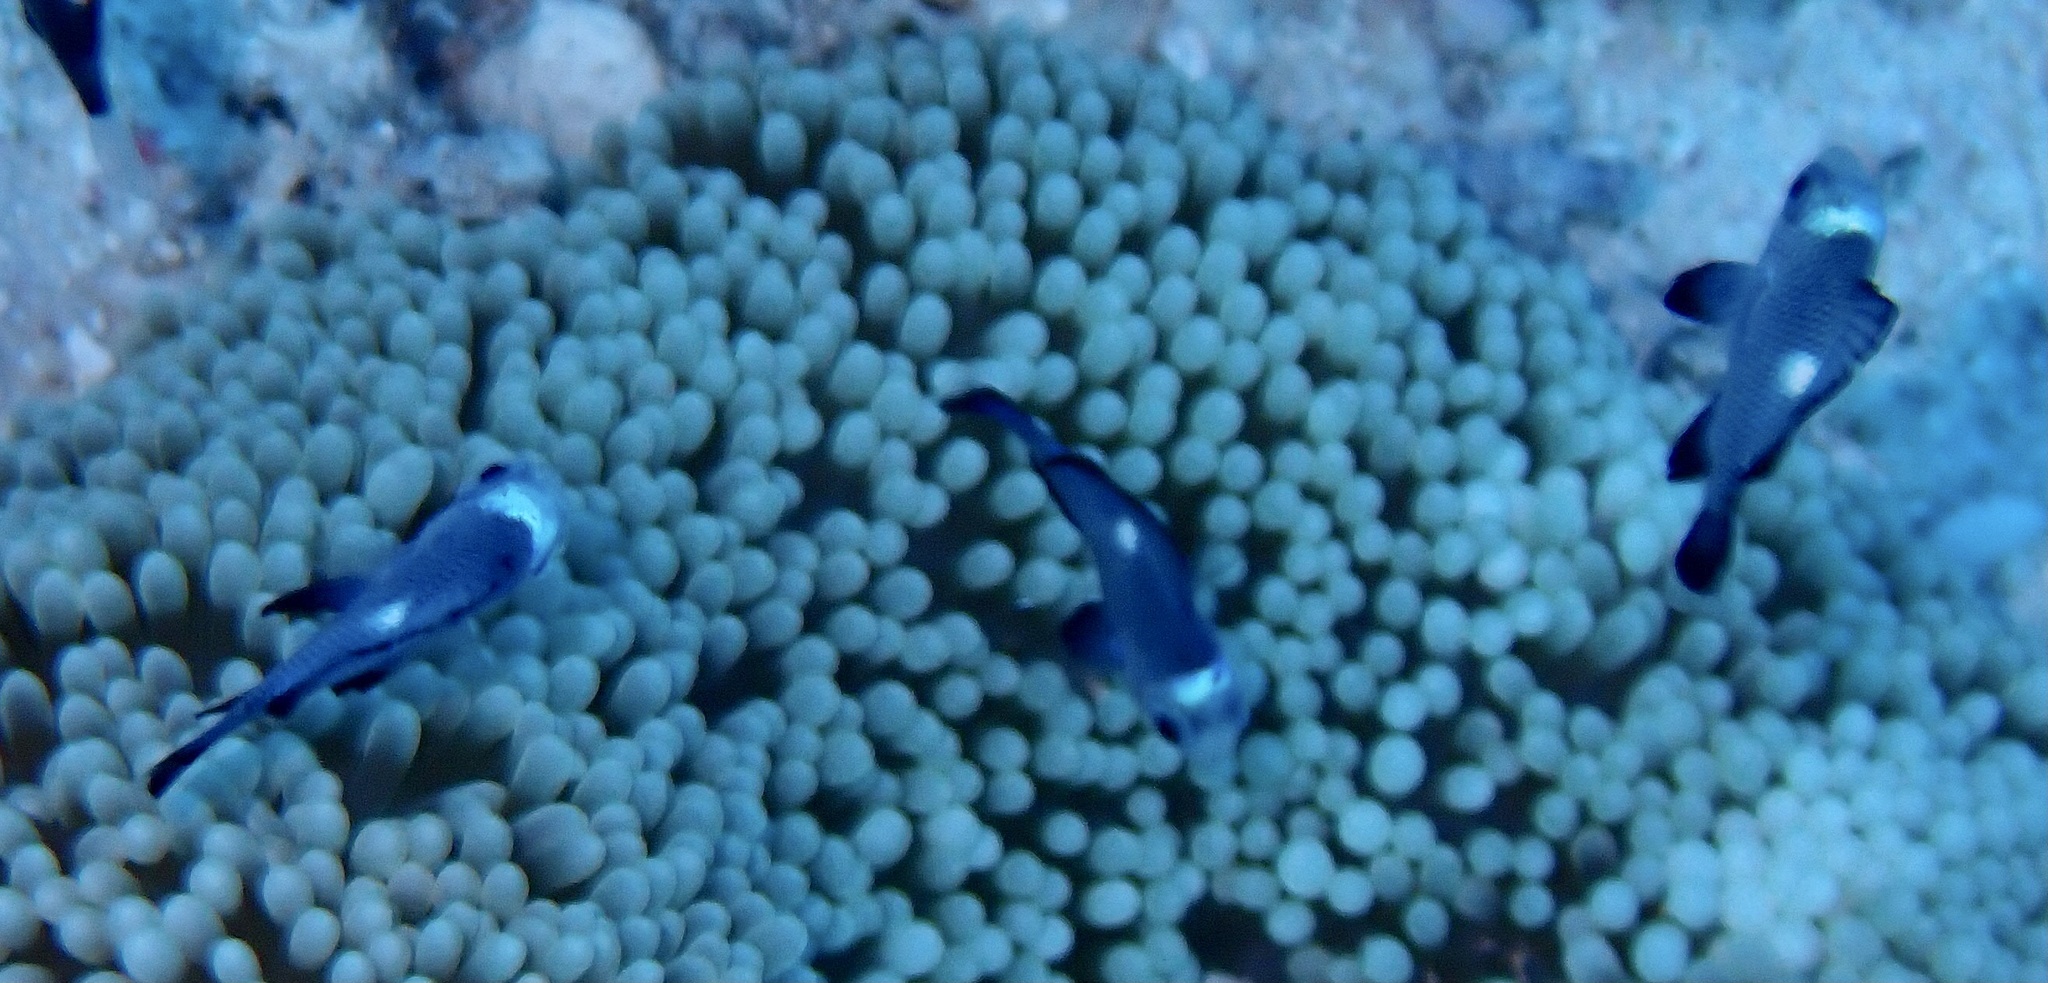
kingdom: Animalia
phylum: Chordata
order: Perciformes
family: Pomacentridae
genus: Dascyllus
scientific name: Dascyllus trimaculatus
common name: Threespot dascyllus
